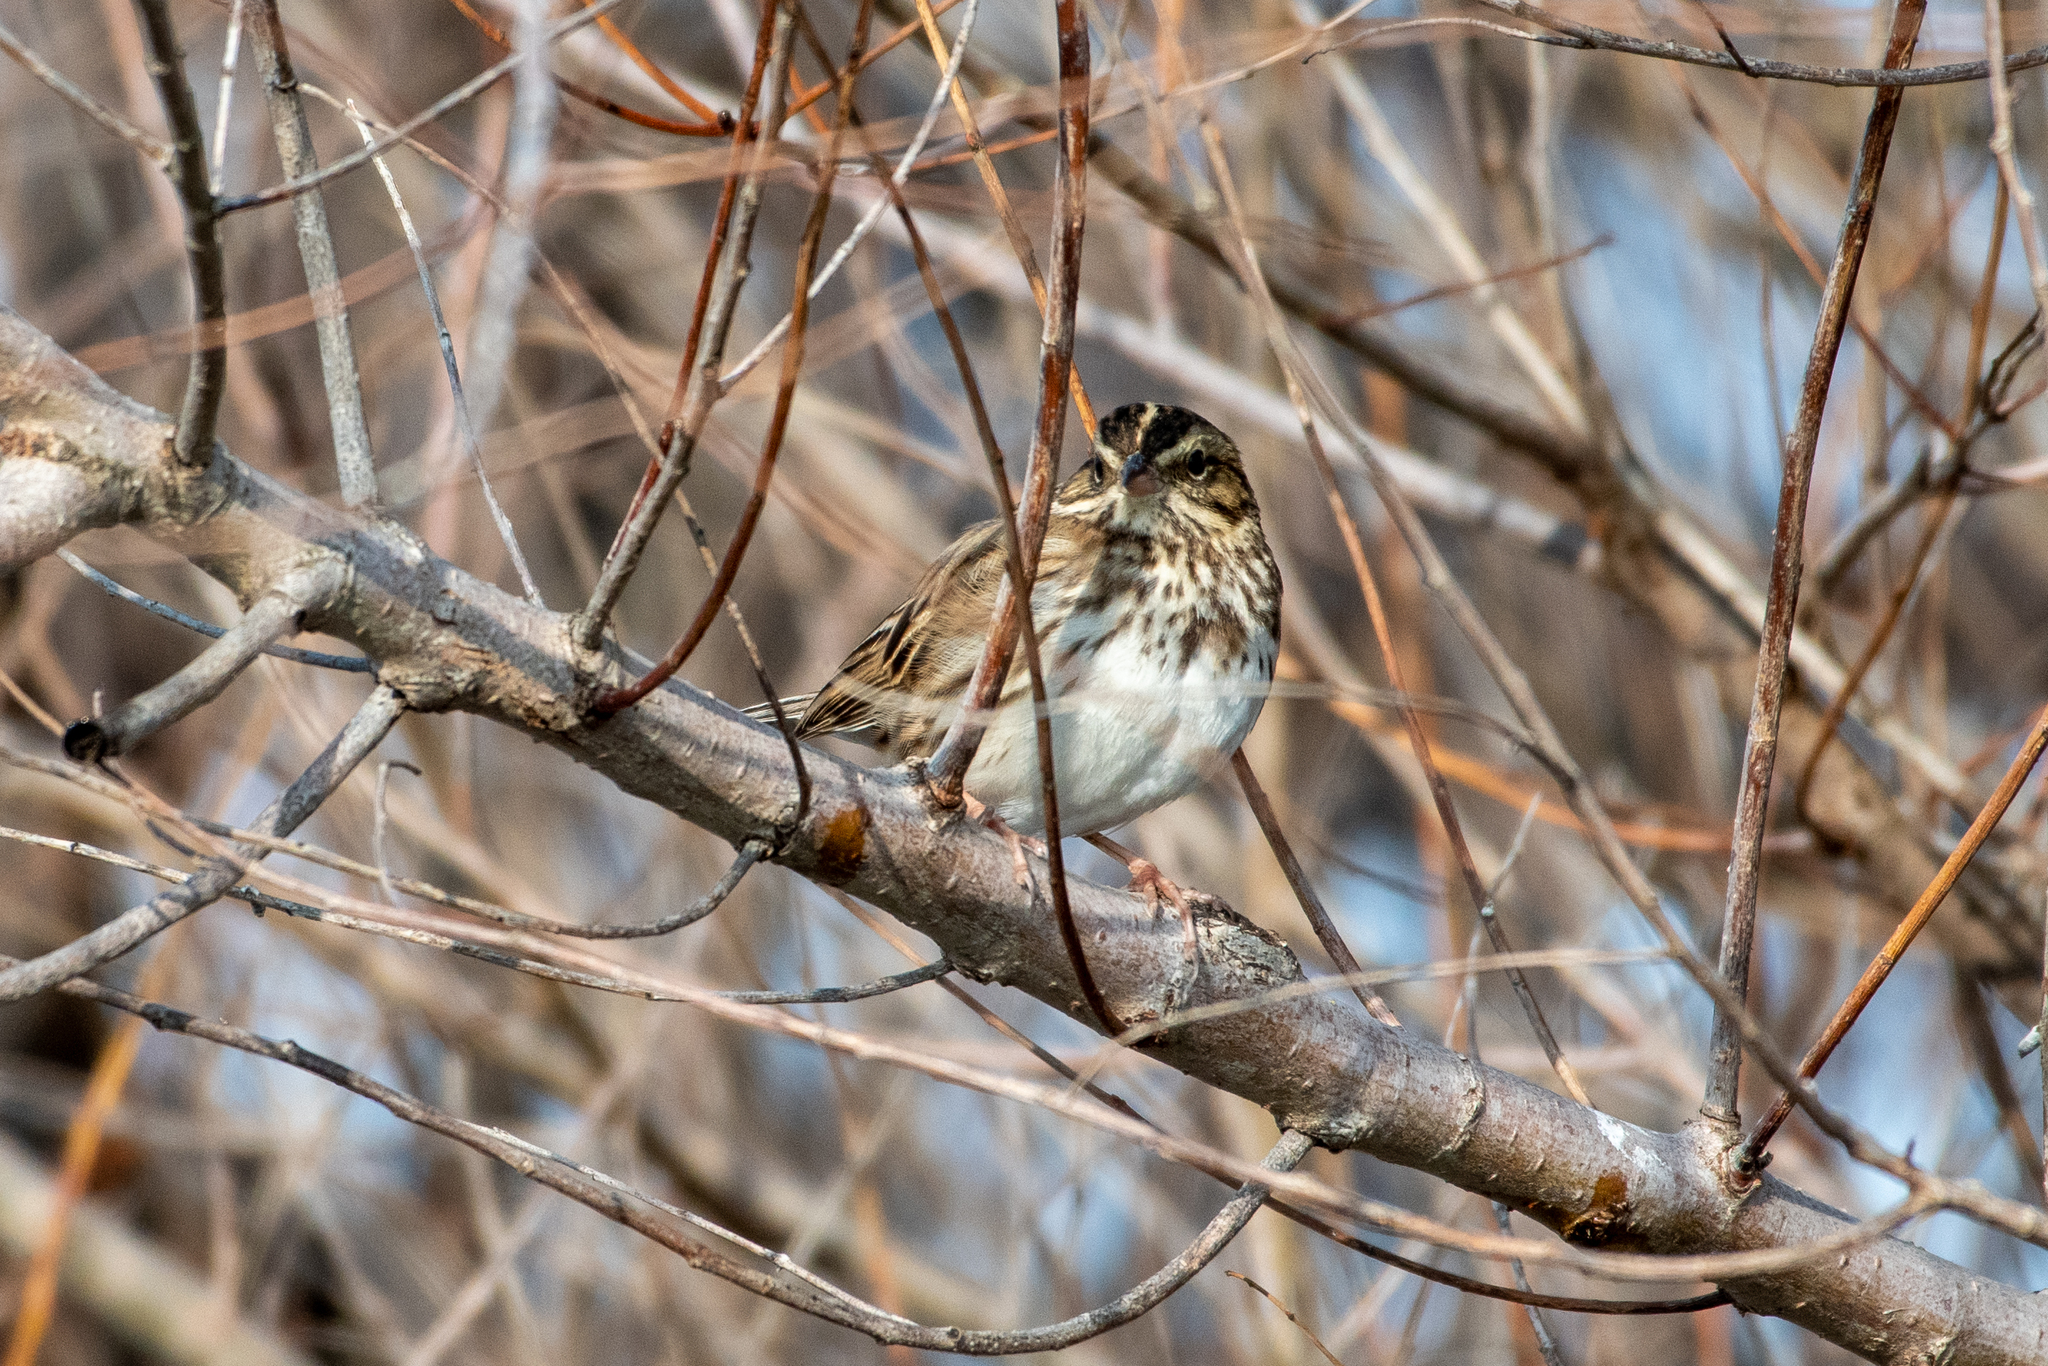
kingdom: Animalia
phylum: Chordata
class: Aves
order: Passeriformes
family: Passerellidae
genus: Passerculus
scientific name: Passerculus sandwichensis
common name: Savannah sparrow
